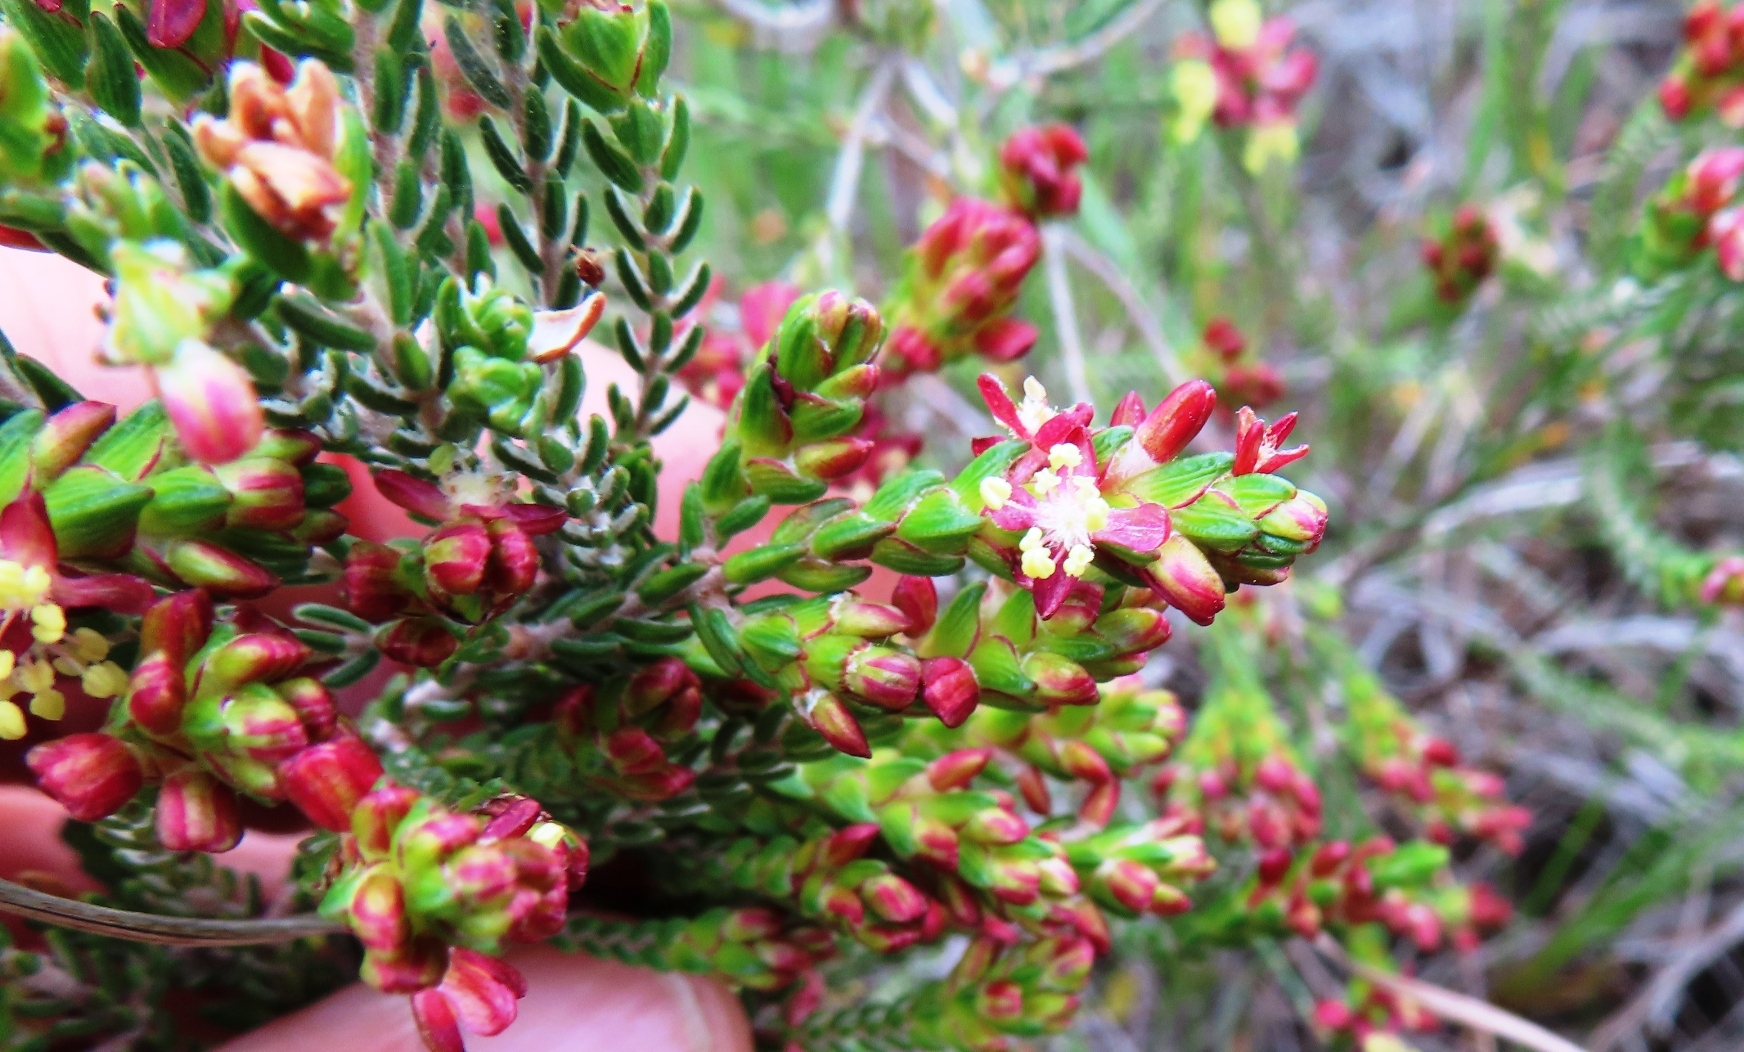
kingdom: Plantae
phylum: Tracheophyta
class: Magnoliopsida
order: Malvales
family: Thymelaeaceae
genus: Passerina
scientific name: Passerina rubra
